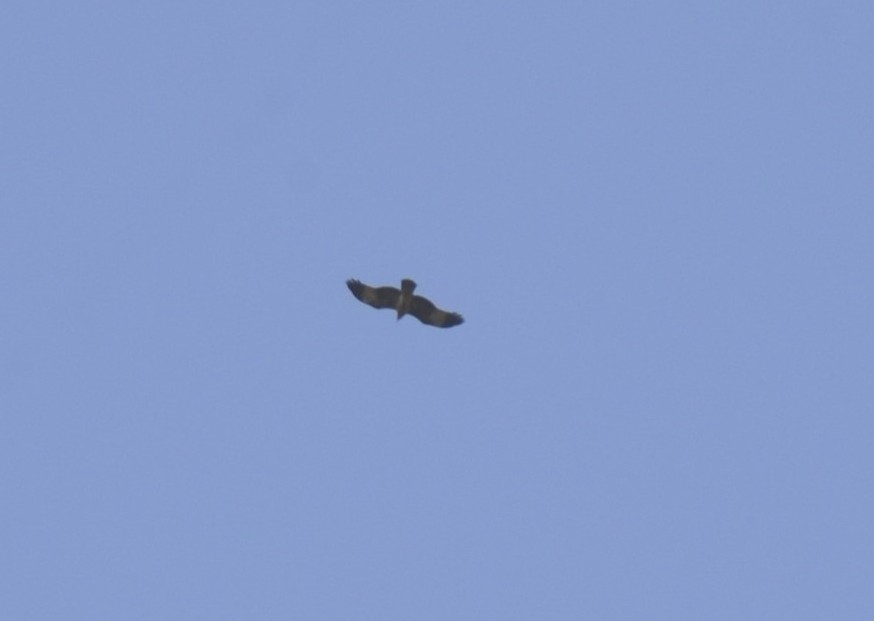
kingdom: Animalia
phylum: Chordata
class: Aves
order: Accipitriformes
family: Accipitridae
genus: Haliastur
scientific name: Haliastur indus
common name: Brahminy kite
